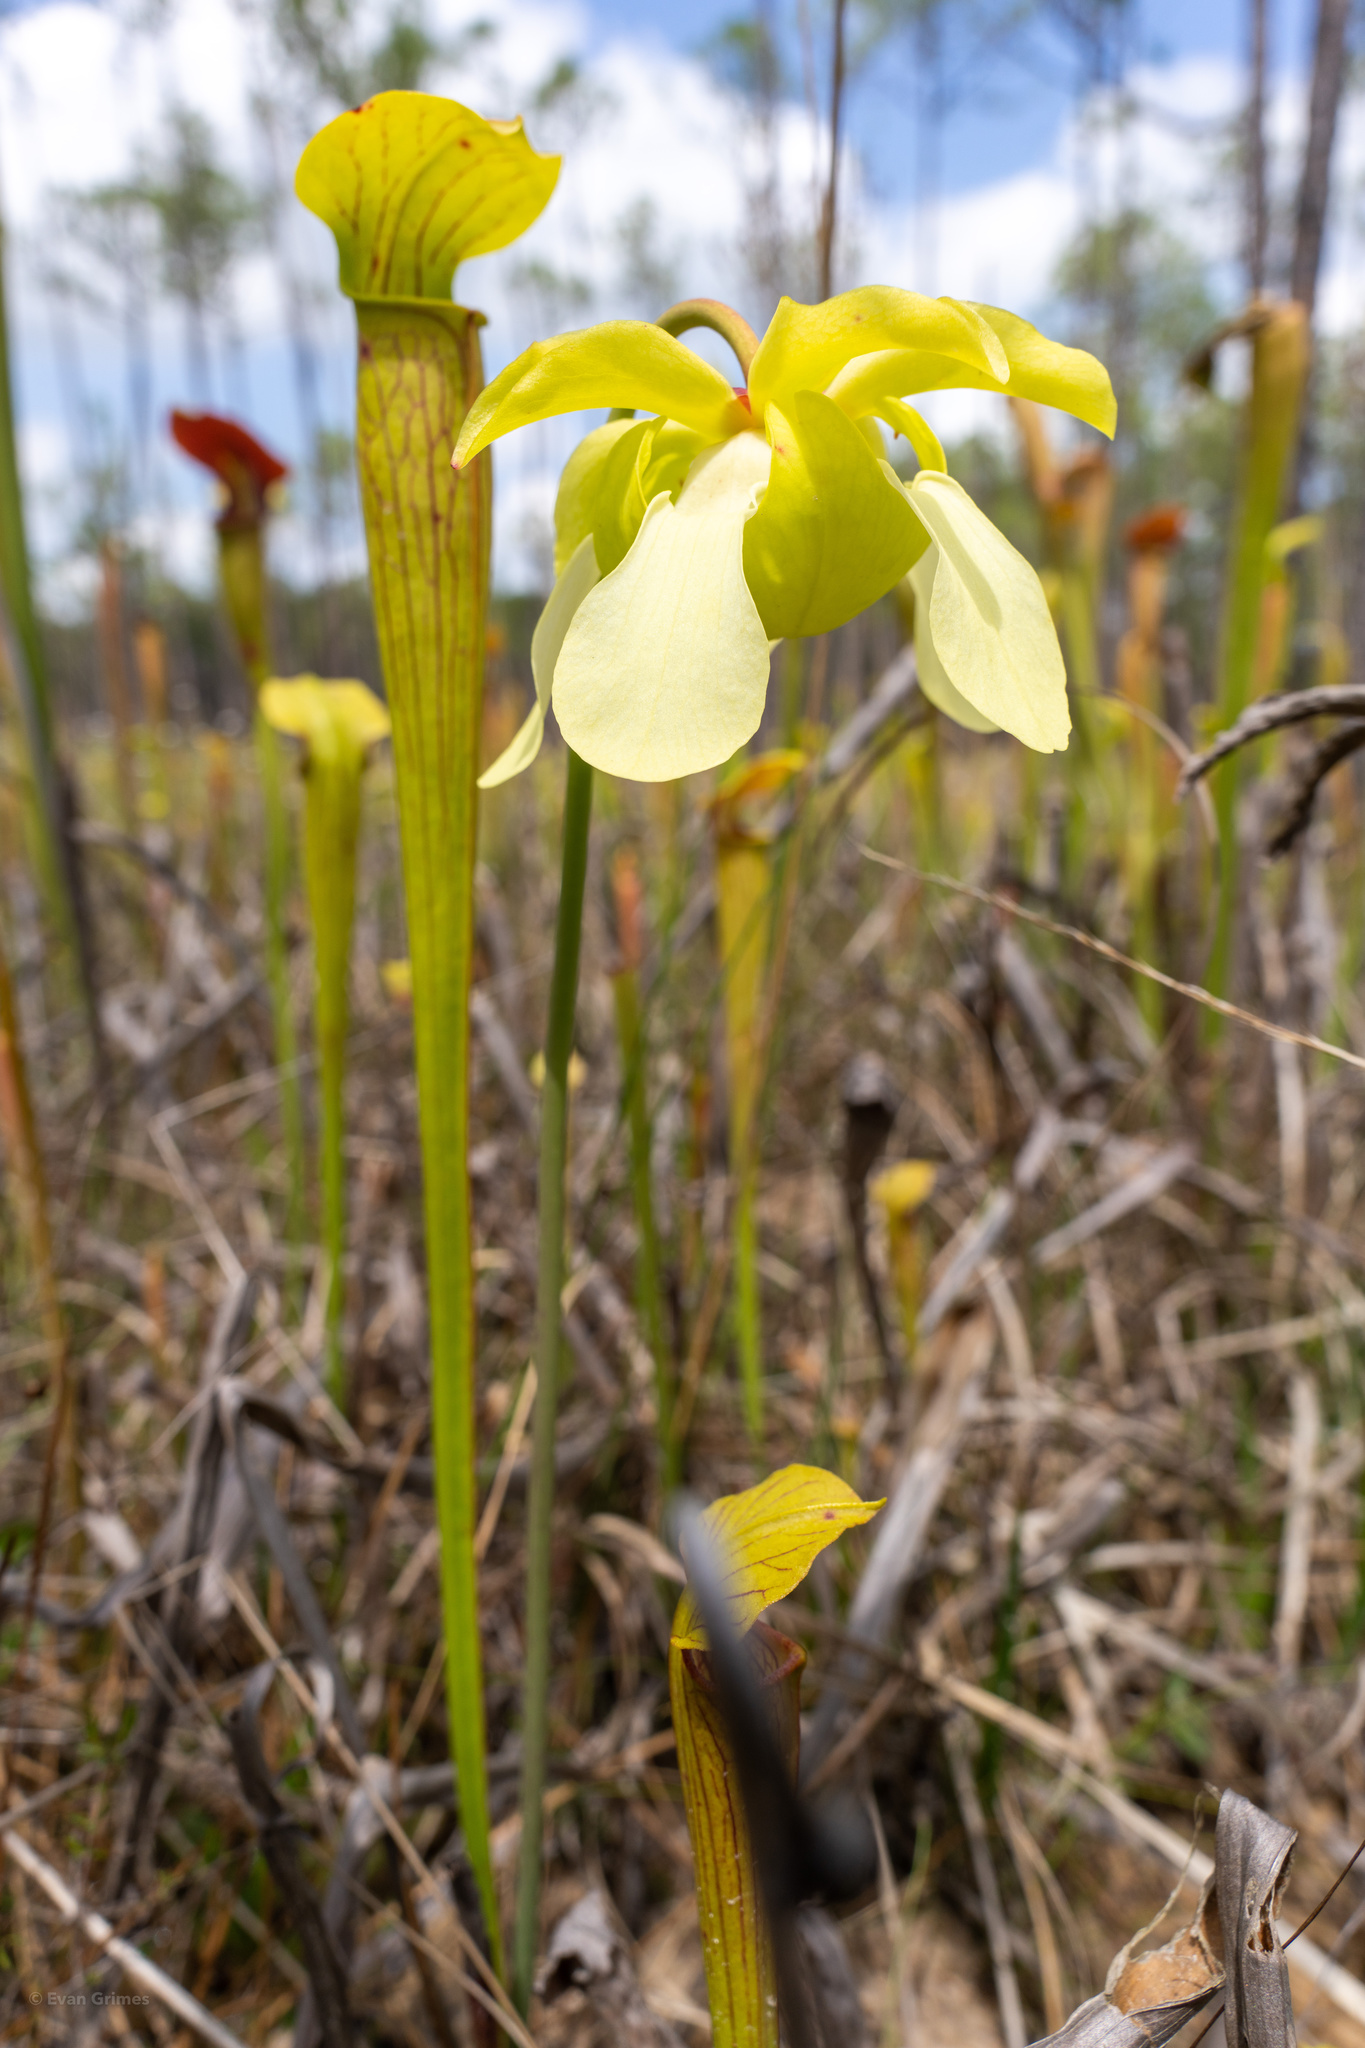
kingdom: Plantae
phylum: Tracheophyta
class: Magnoliopsida
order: Ericales
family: Sarraceniaceae
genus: Sarracenia
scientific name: Sarracenia alata
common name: Yellow trumpets
